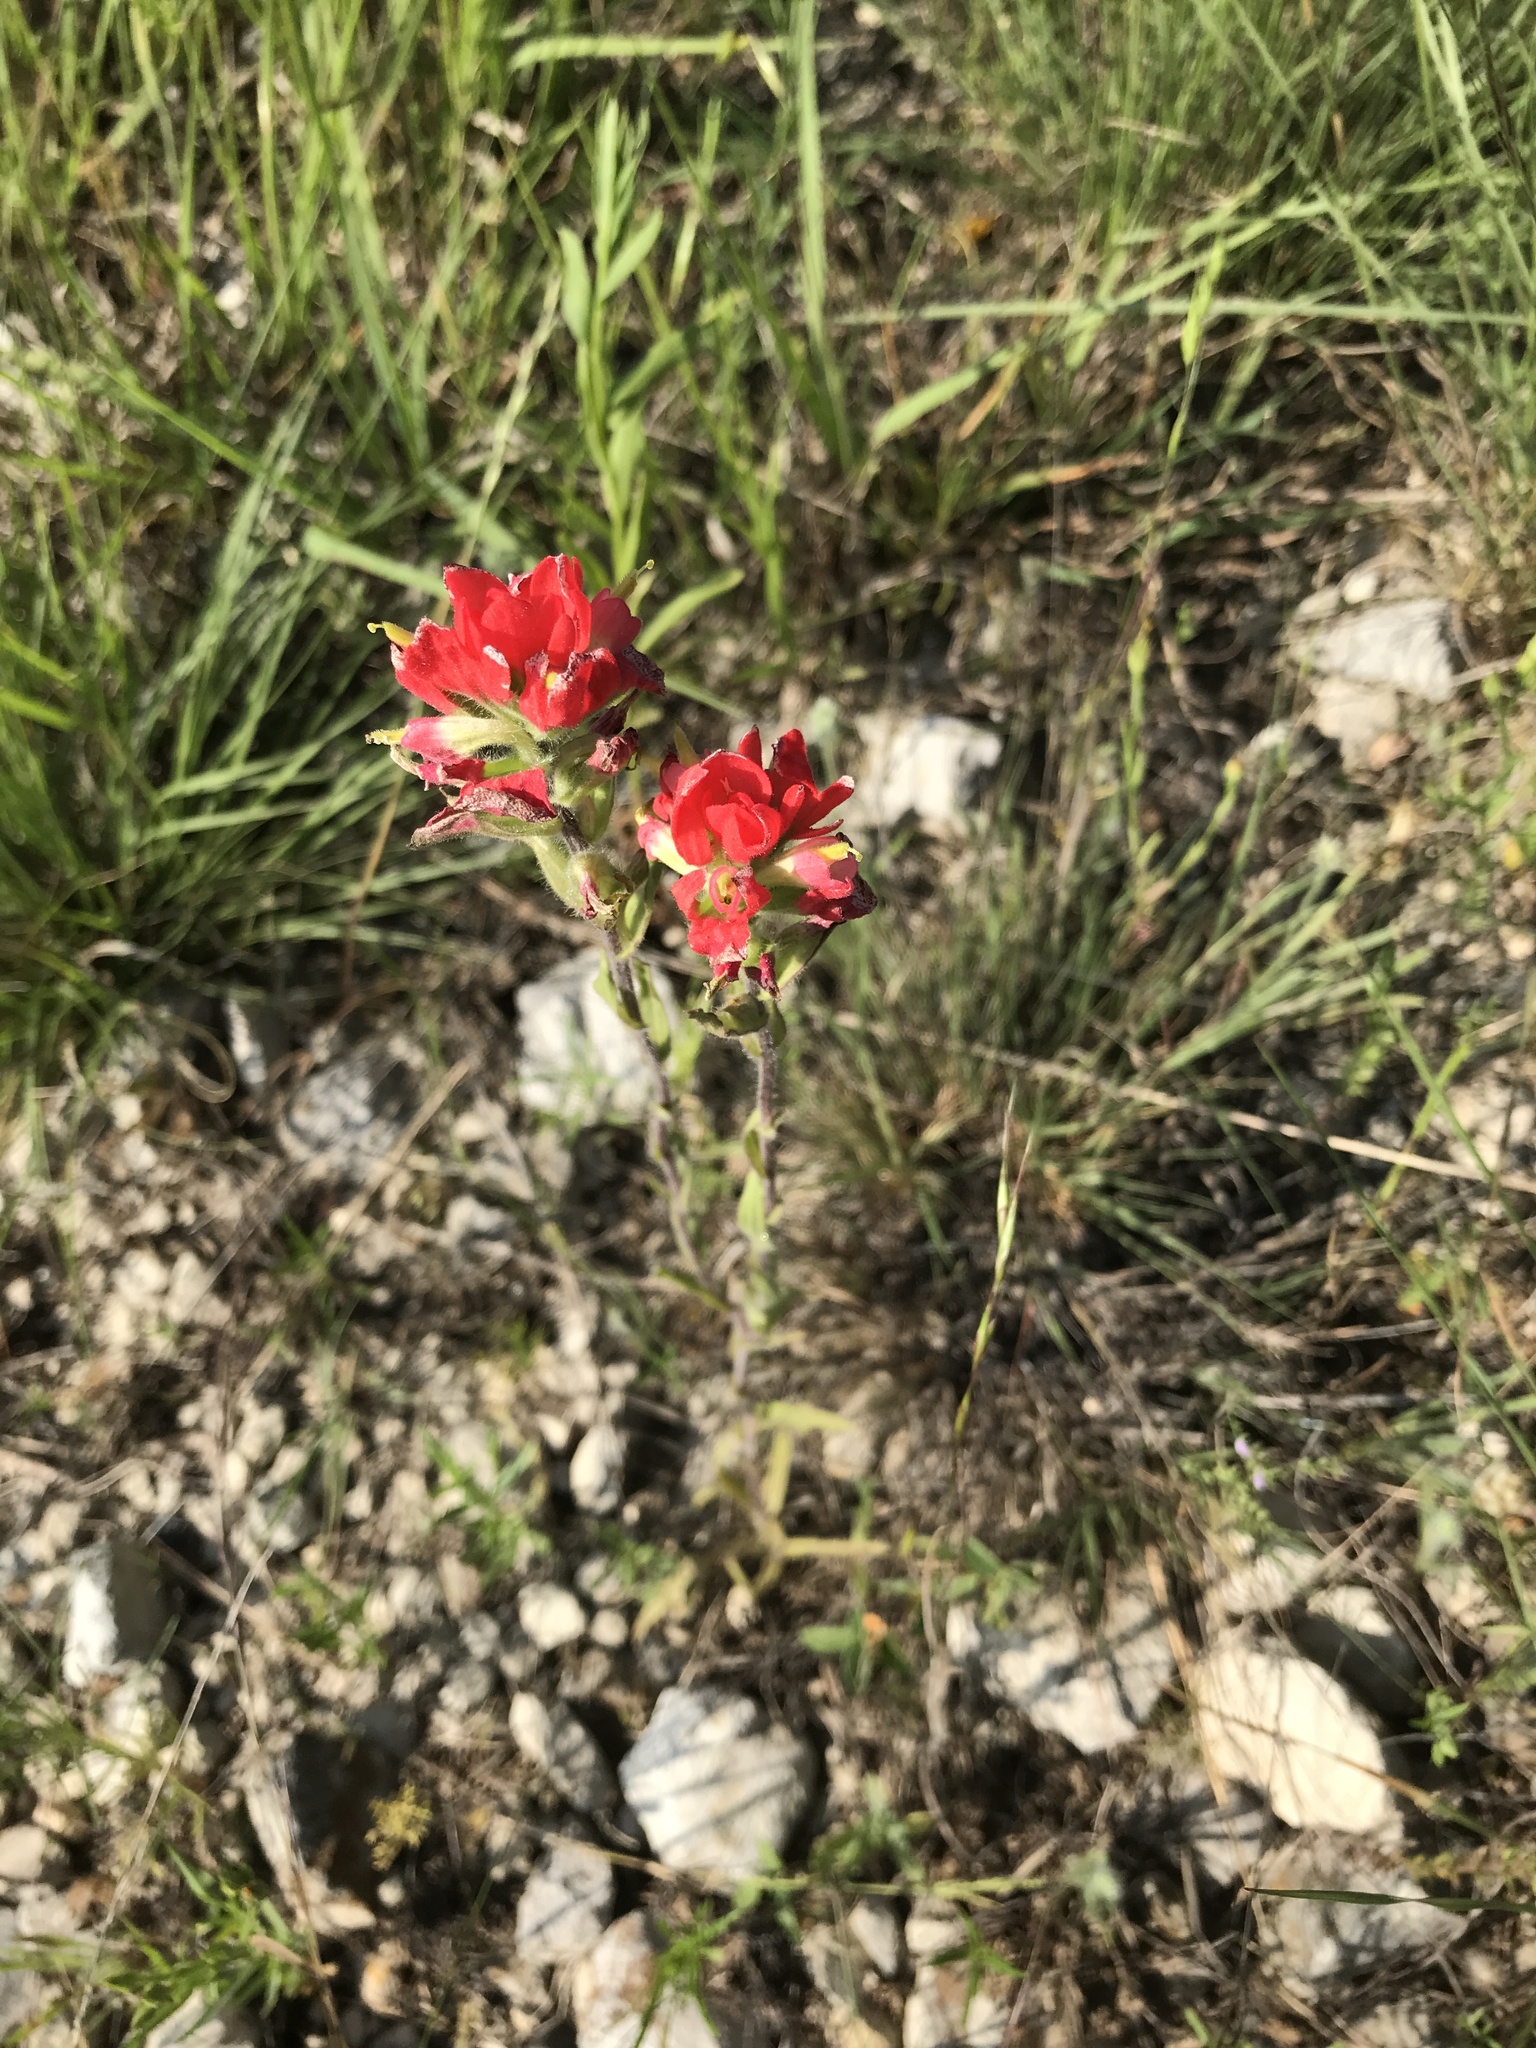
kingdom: Plantae
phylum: Tracheophyta
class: Magnoliopsida
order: Lamiales
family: Orobanchaceae
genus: Castilleja
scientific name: Castilleja indivisa
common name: Texas paintbrush
